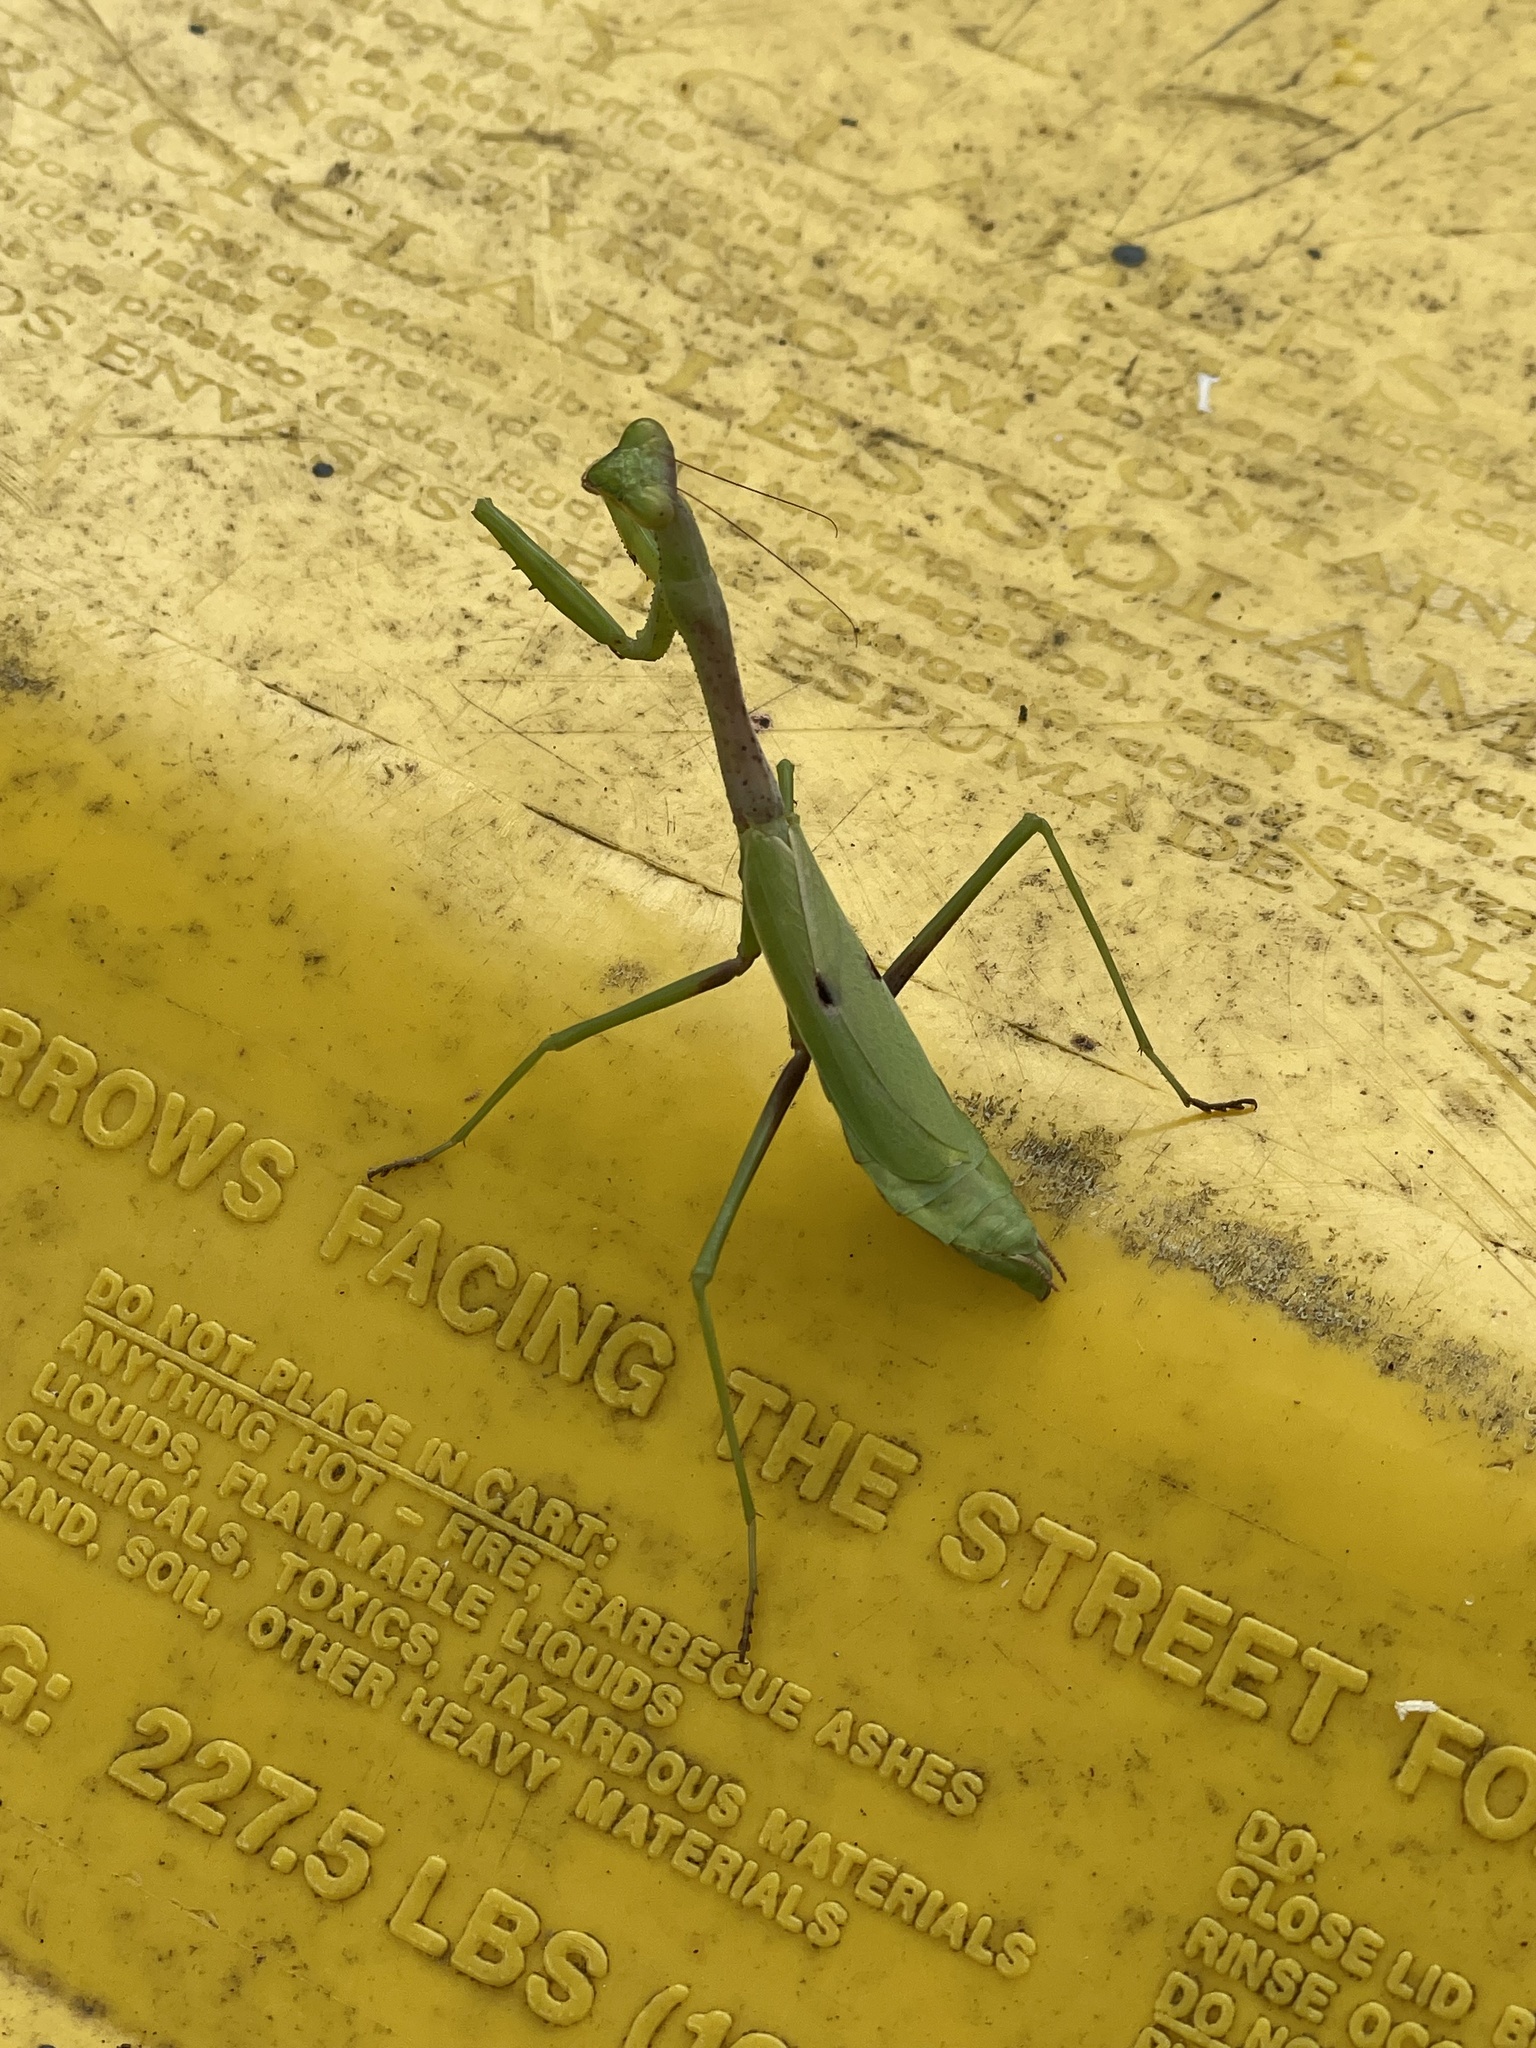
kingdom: Animalia
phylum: Arthropoda
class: Insecta
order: Mantodea
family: Mantidae
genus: Stagmomantis
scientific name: Stagmomantis carolina
